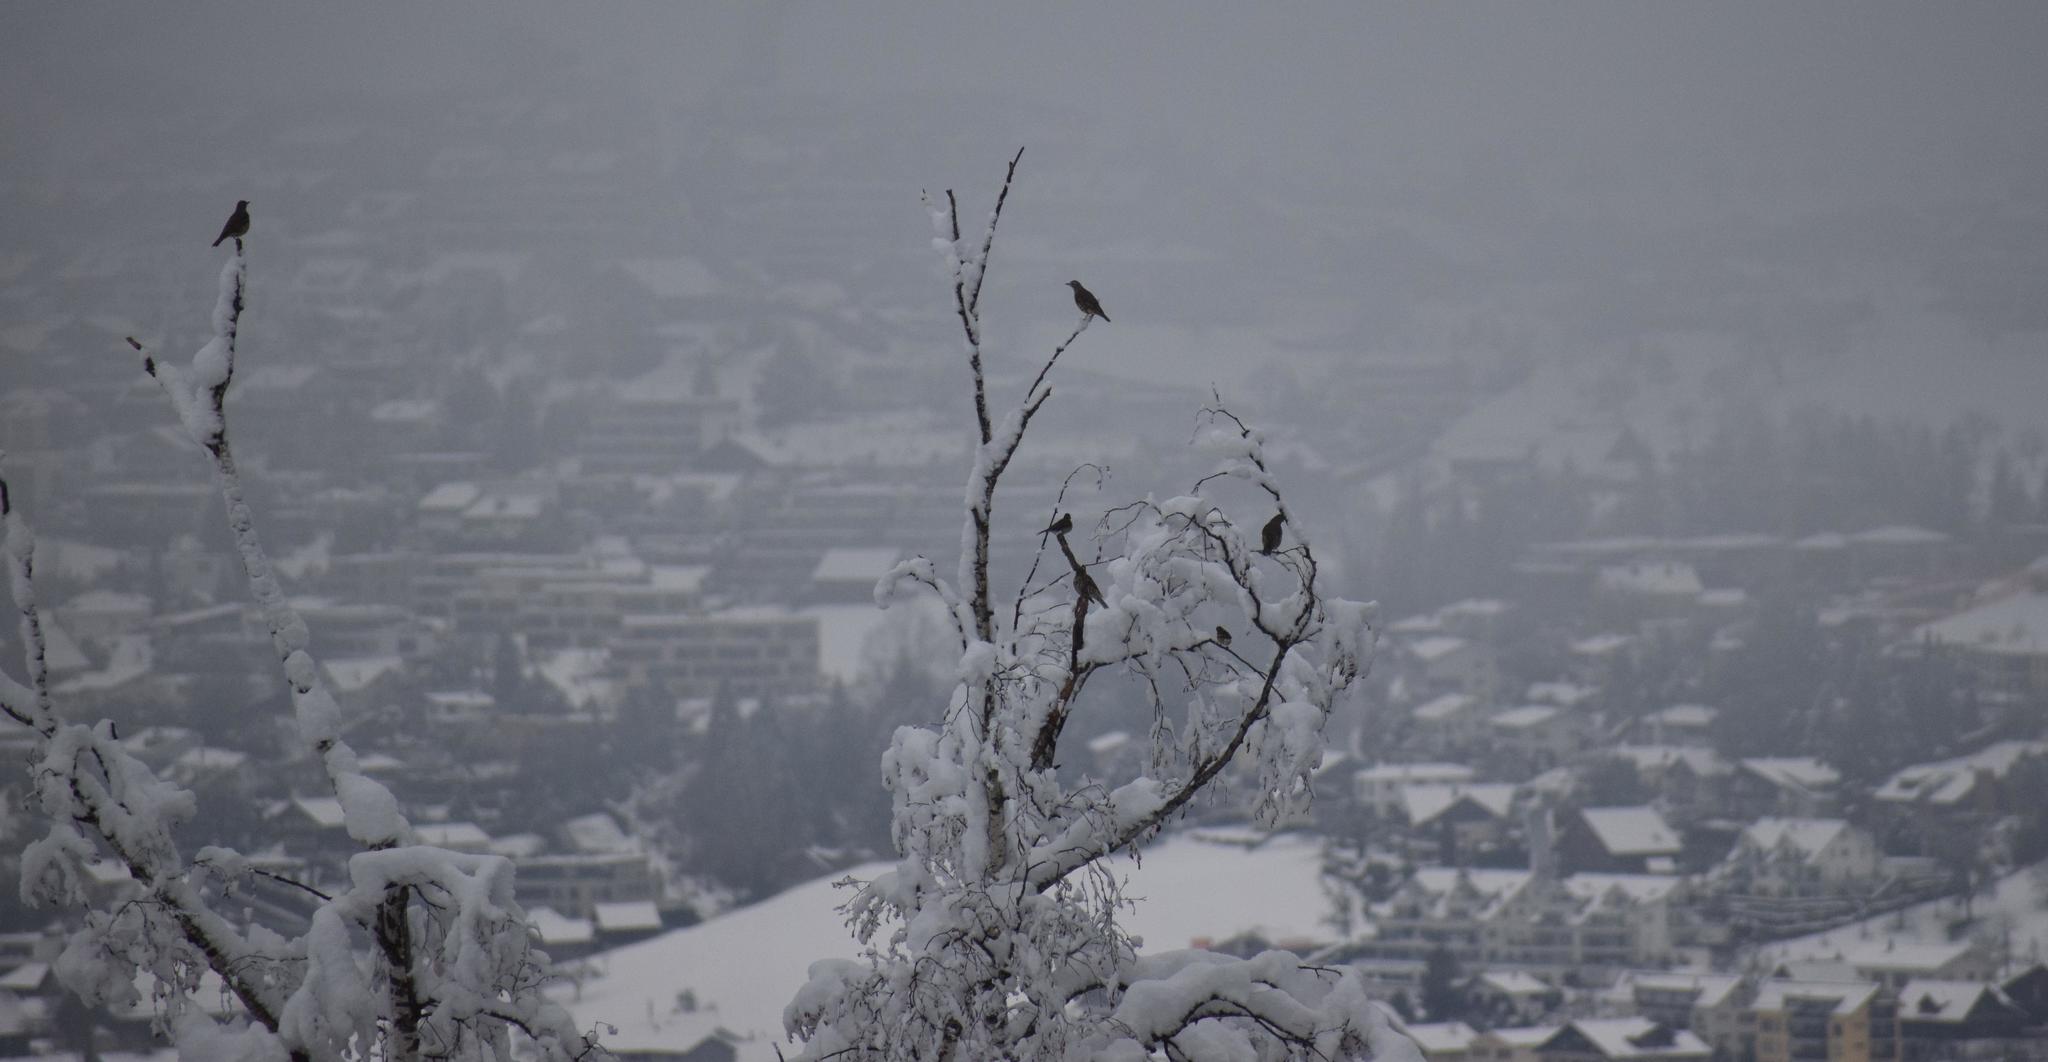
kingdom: Animalia
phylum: Chordata
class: Aves
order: Passeriformes
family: Turdidae
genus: Turdus
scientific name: Turdus viscivorus
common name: Mistle thrush
